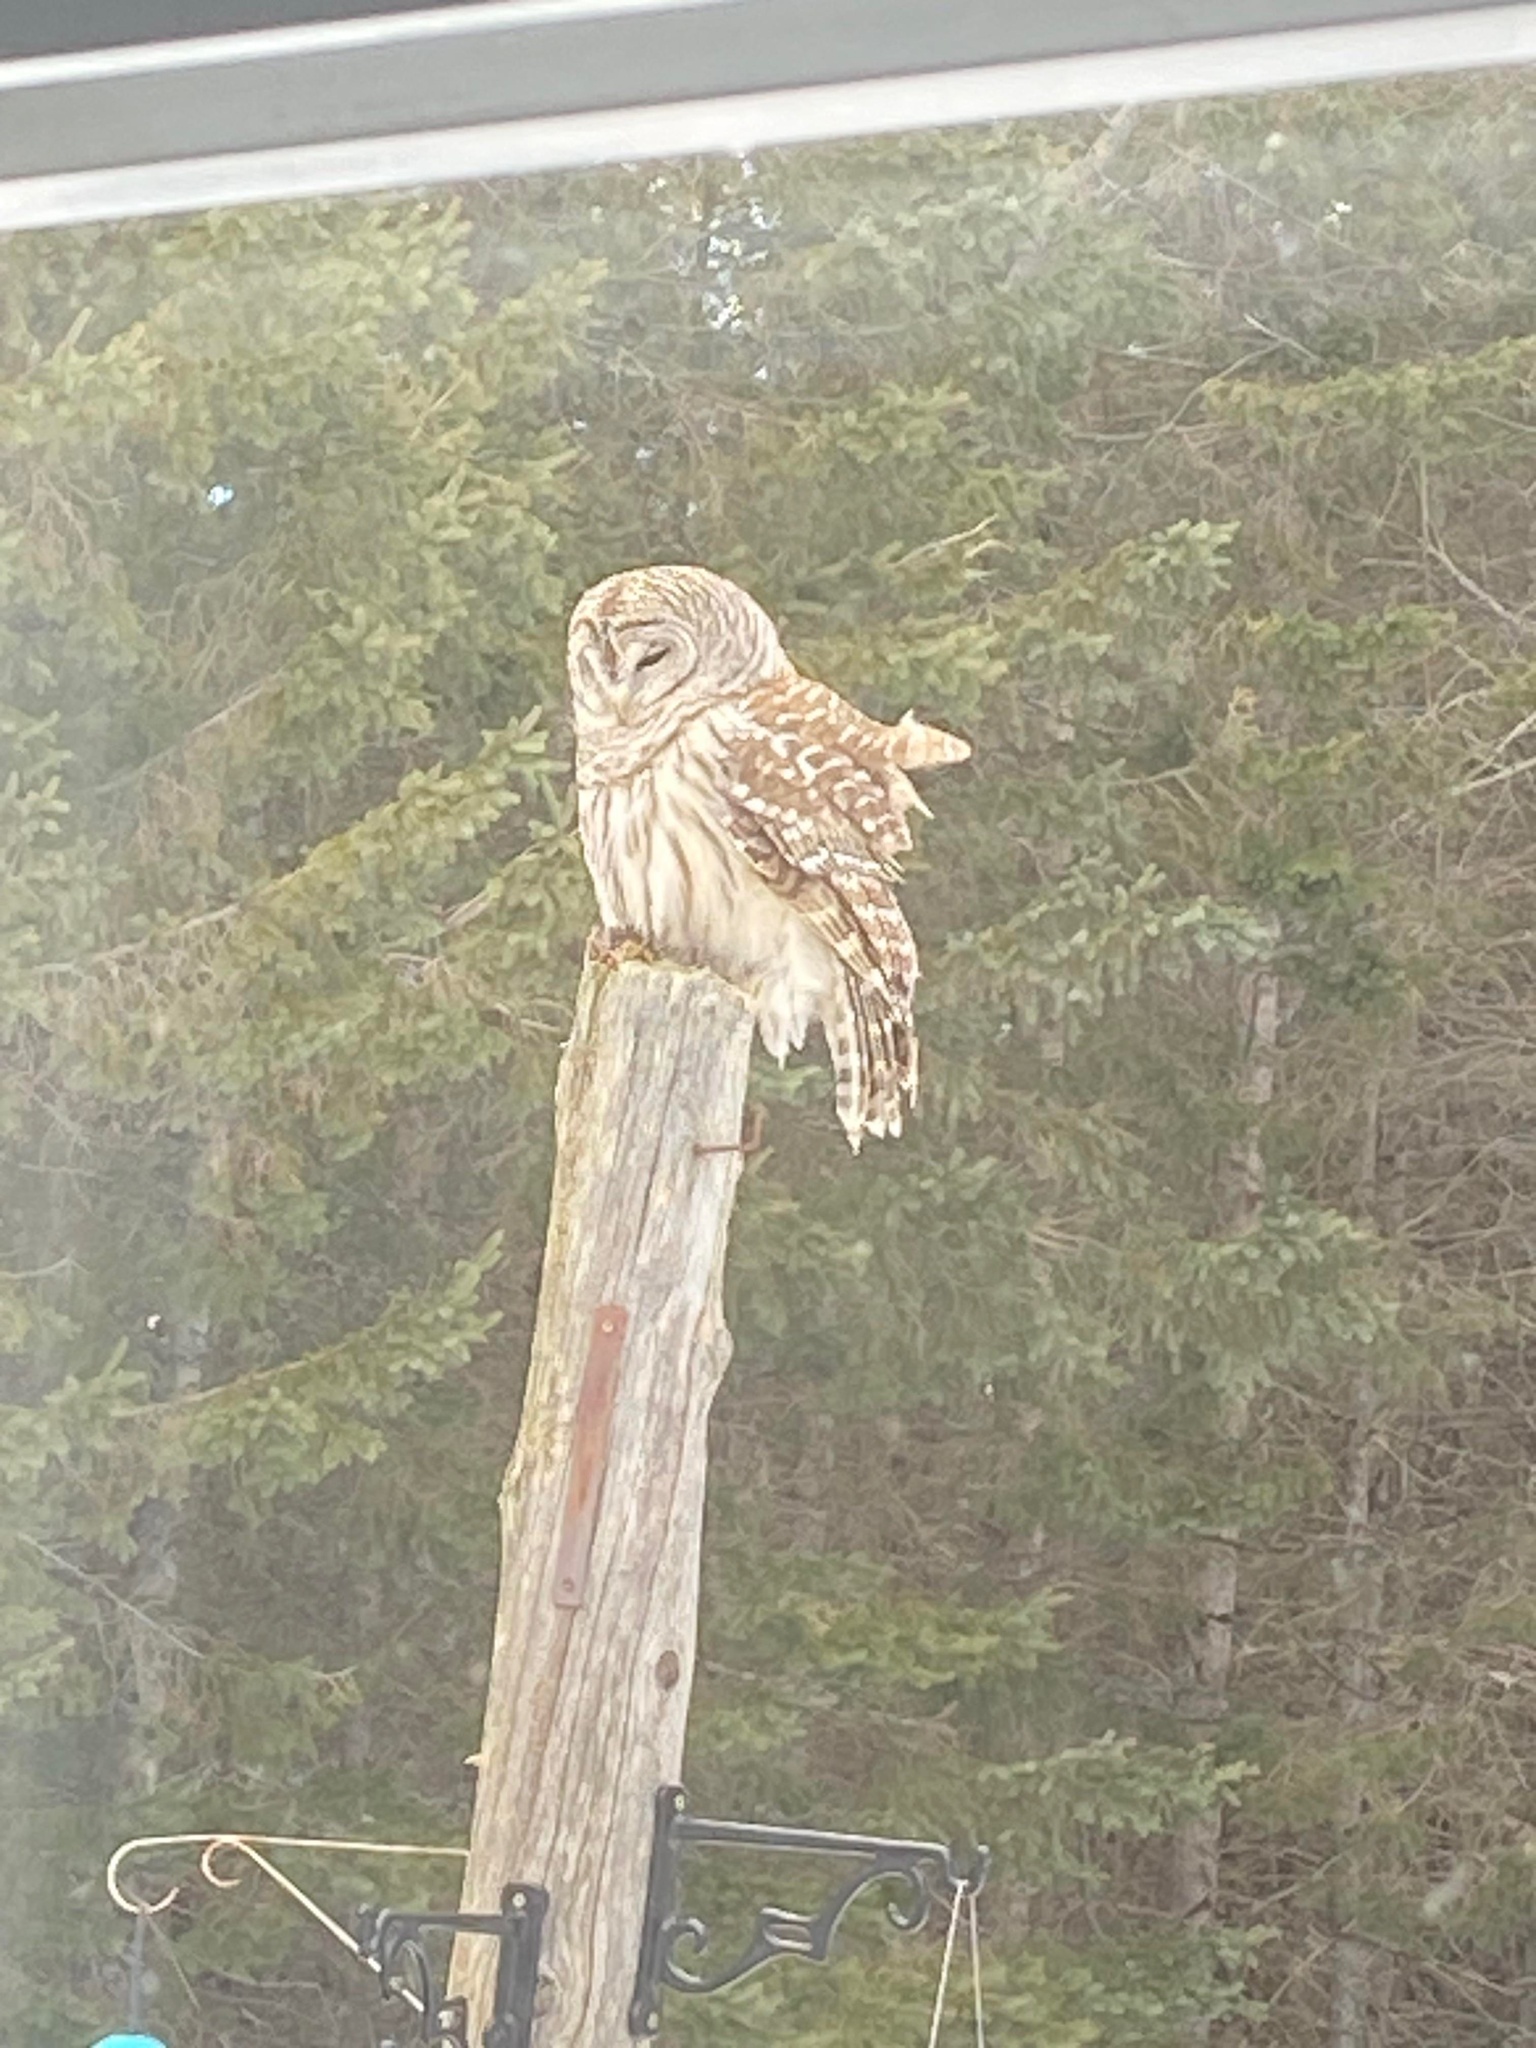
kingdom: Animalia
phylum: Chordata
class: Aves
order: Strigiformes
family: Strigidae
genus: Strix
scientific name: Strix varia
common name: Barred owl
